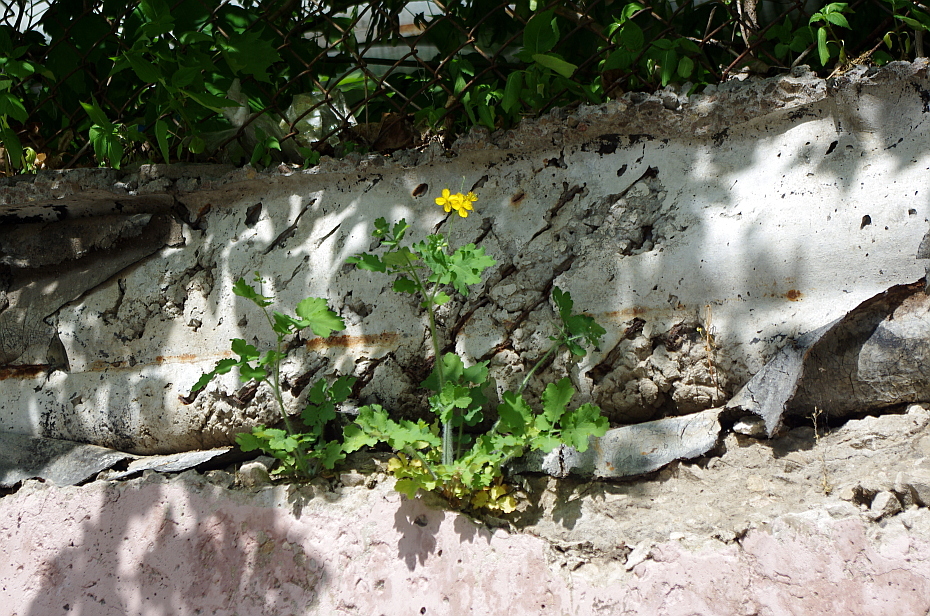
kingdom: Plantae
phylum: Tracheophyta
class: Magnoliopsida
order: Ranunculales
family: Papaveraceae
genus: Chelidonium
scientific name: Chelidonium majus
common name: Greater celandine
